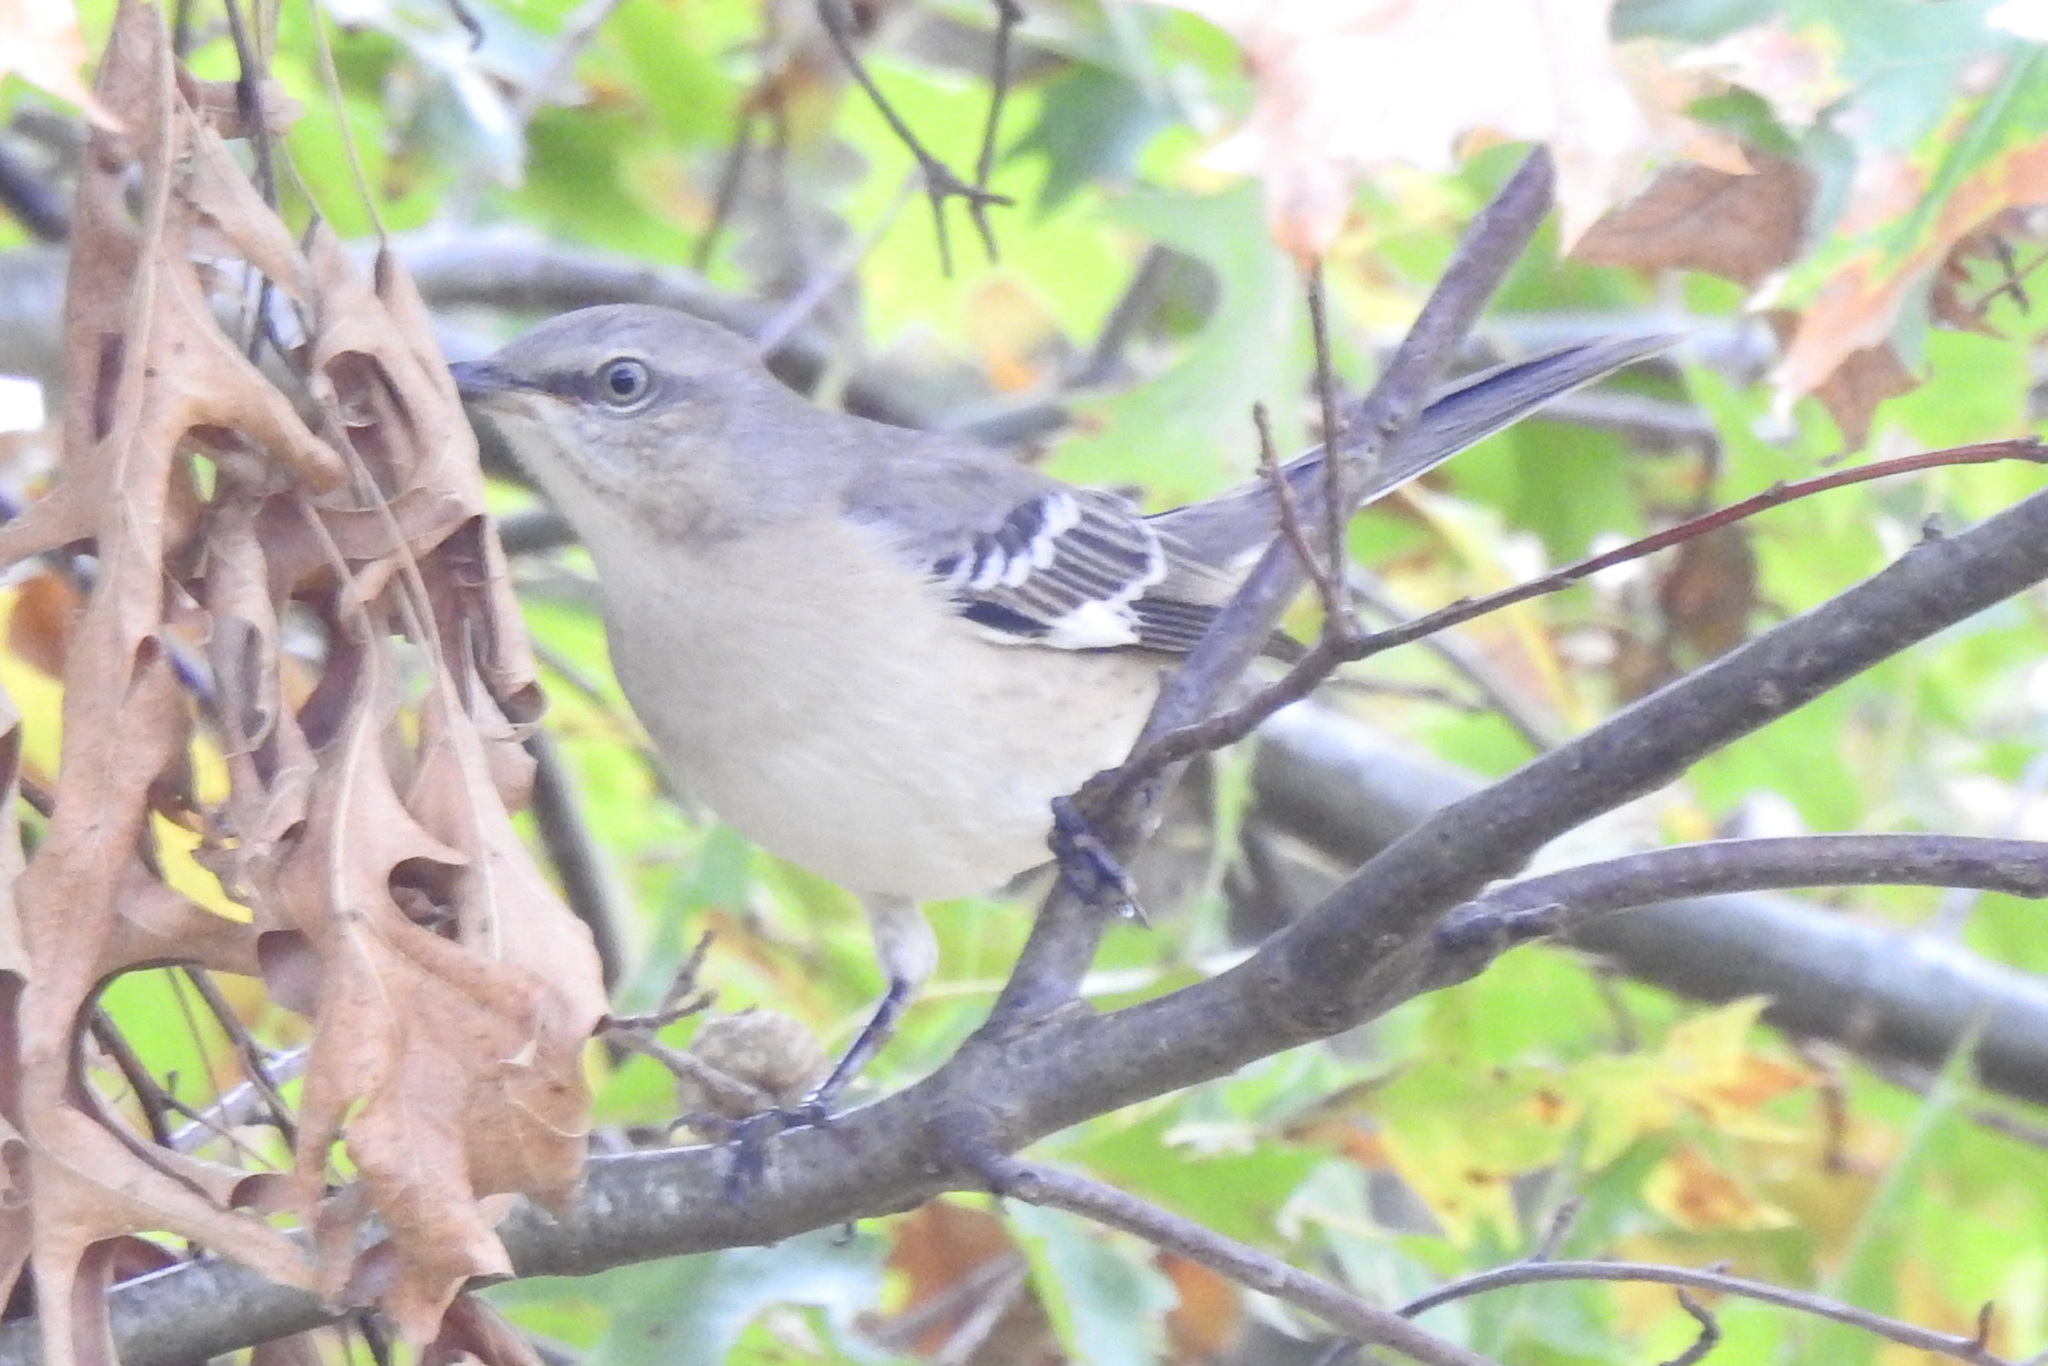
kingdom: Animalia
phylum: Chordata
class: Aves
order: Passeriformes
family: Mimidae
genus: Mimus
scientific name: Mimus polyglottos
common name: Northern mockingbird
